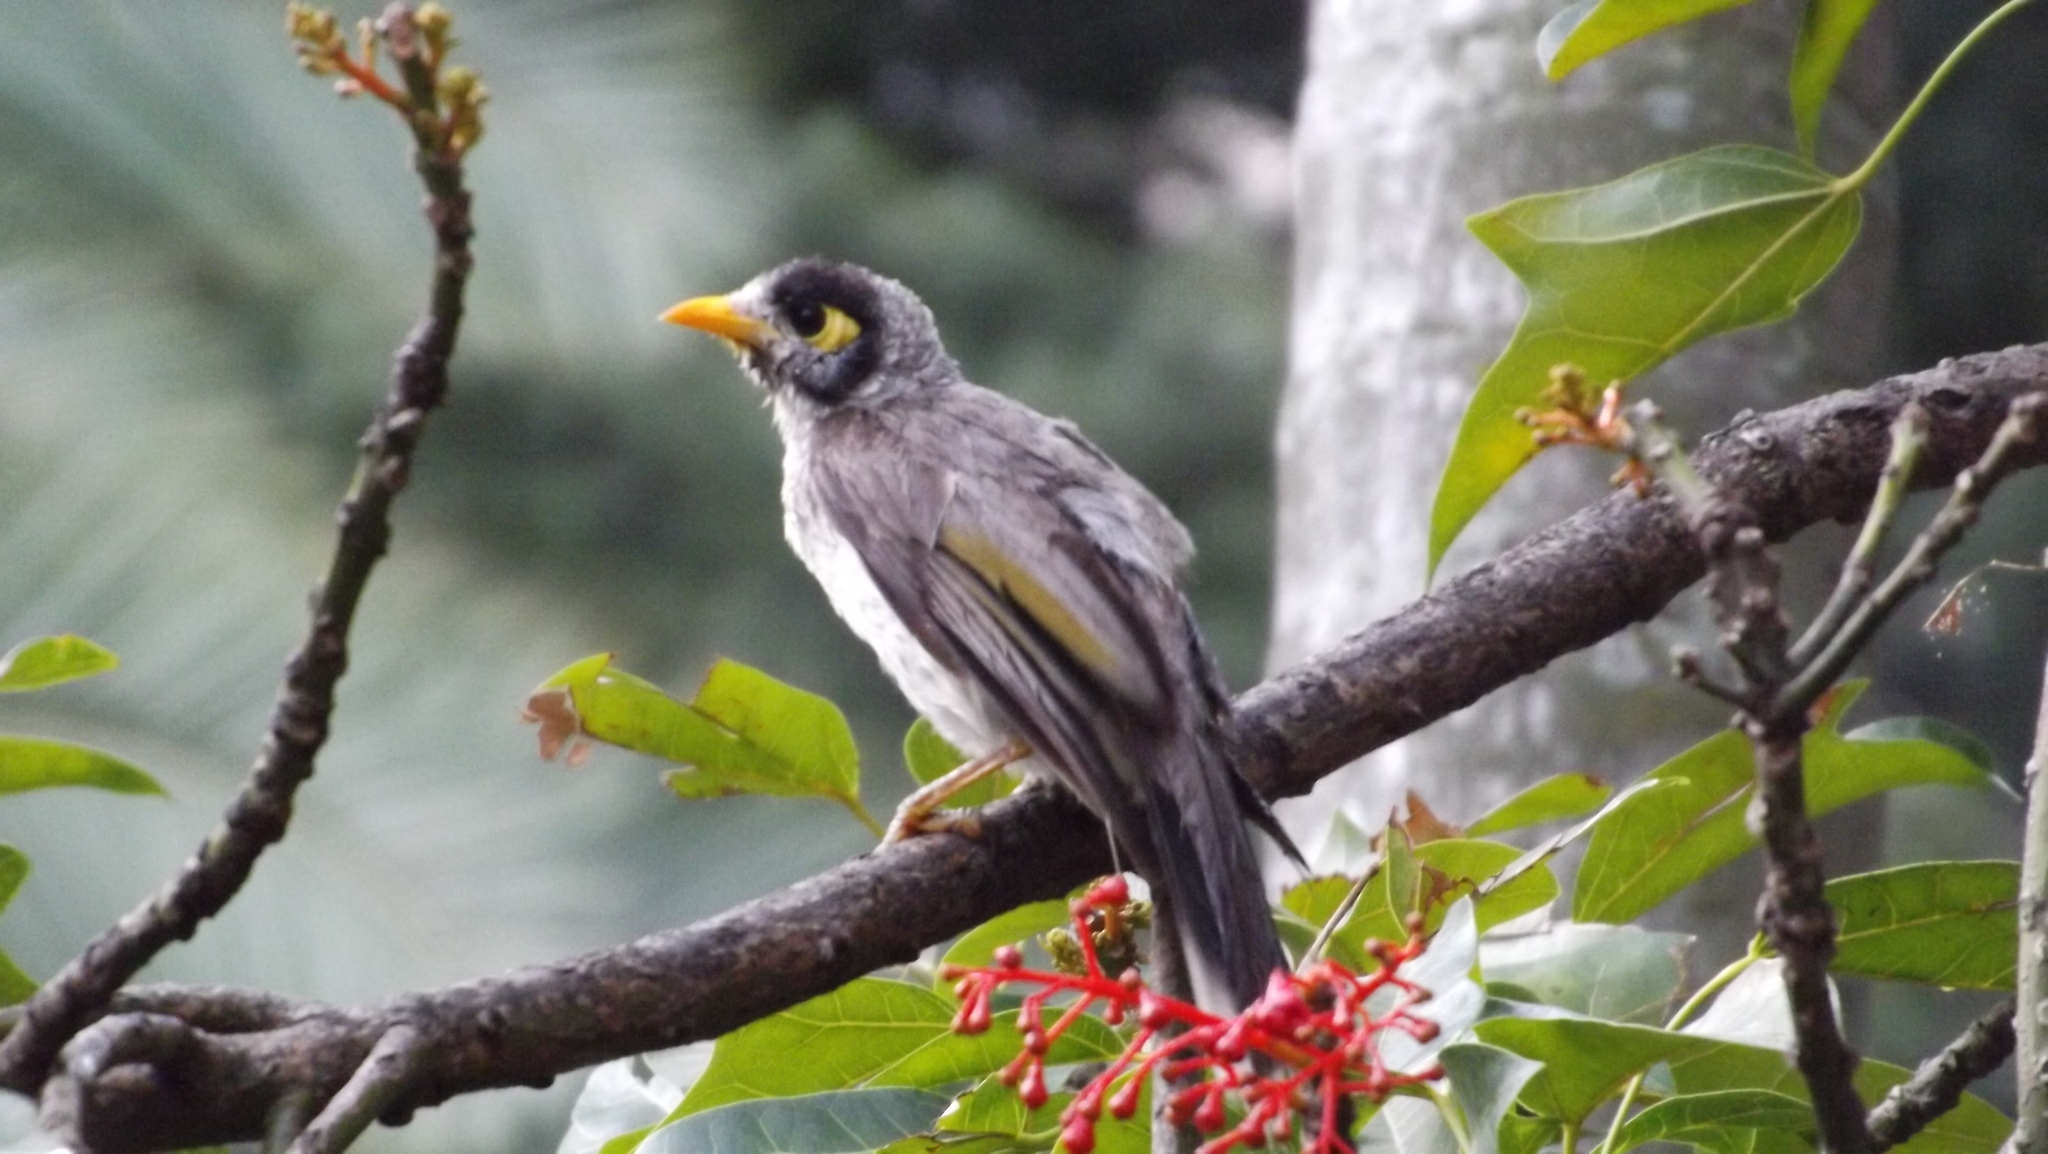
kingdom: Animalia
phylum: Chordata
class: Aves
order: Passeriformes
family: Meliphagidae
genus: Manorina
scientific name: Manorina melanocephala
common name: Noisy miner
